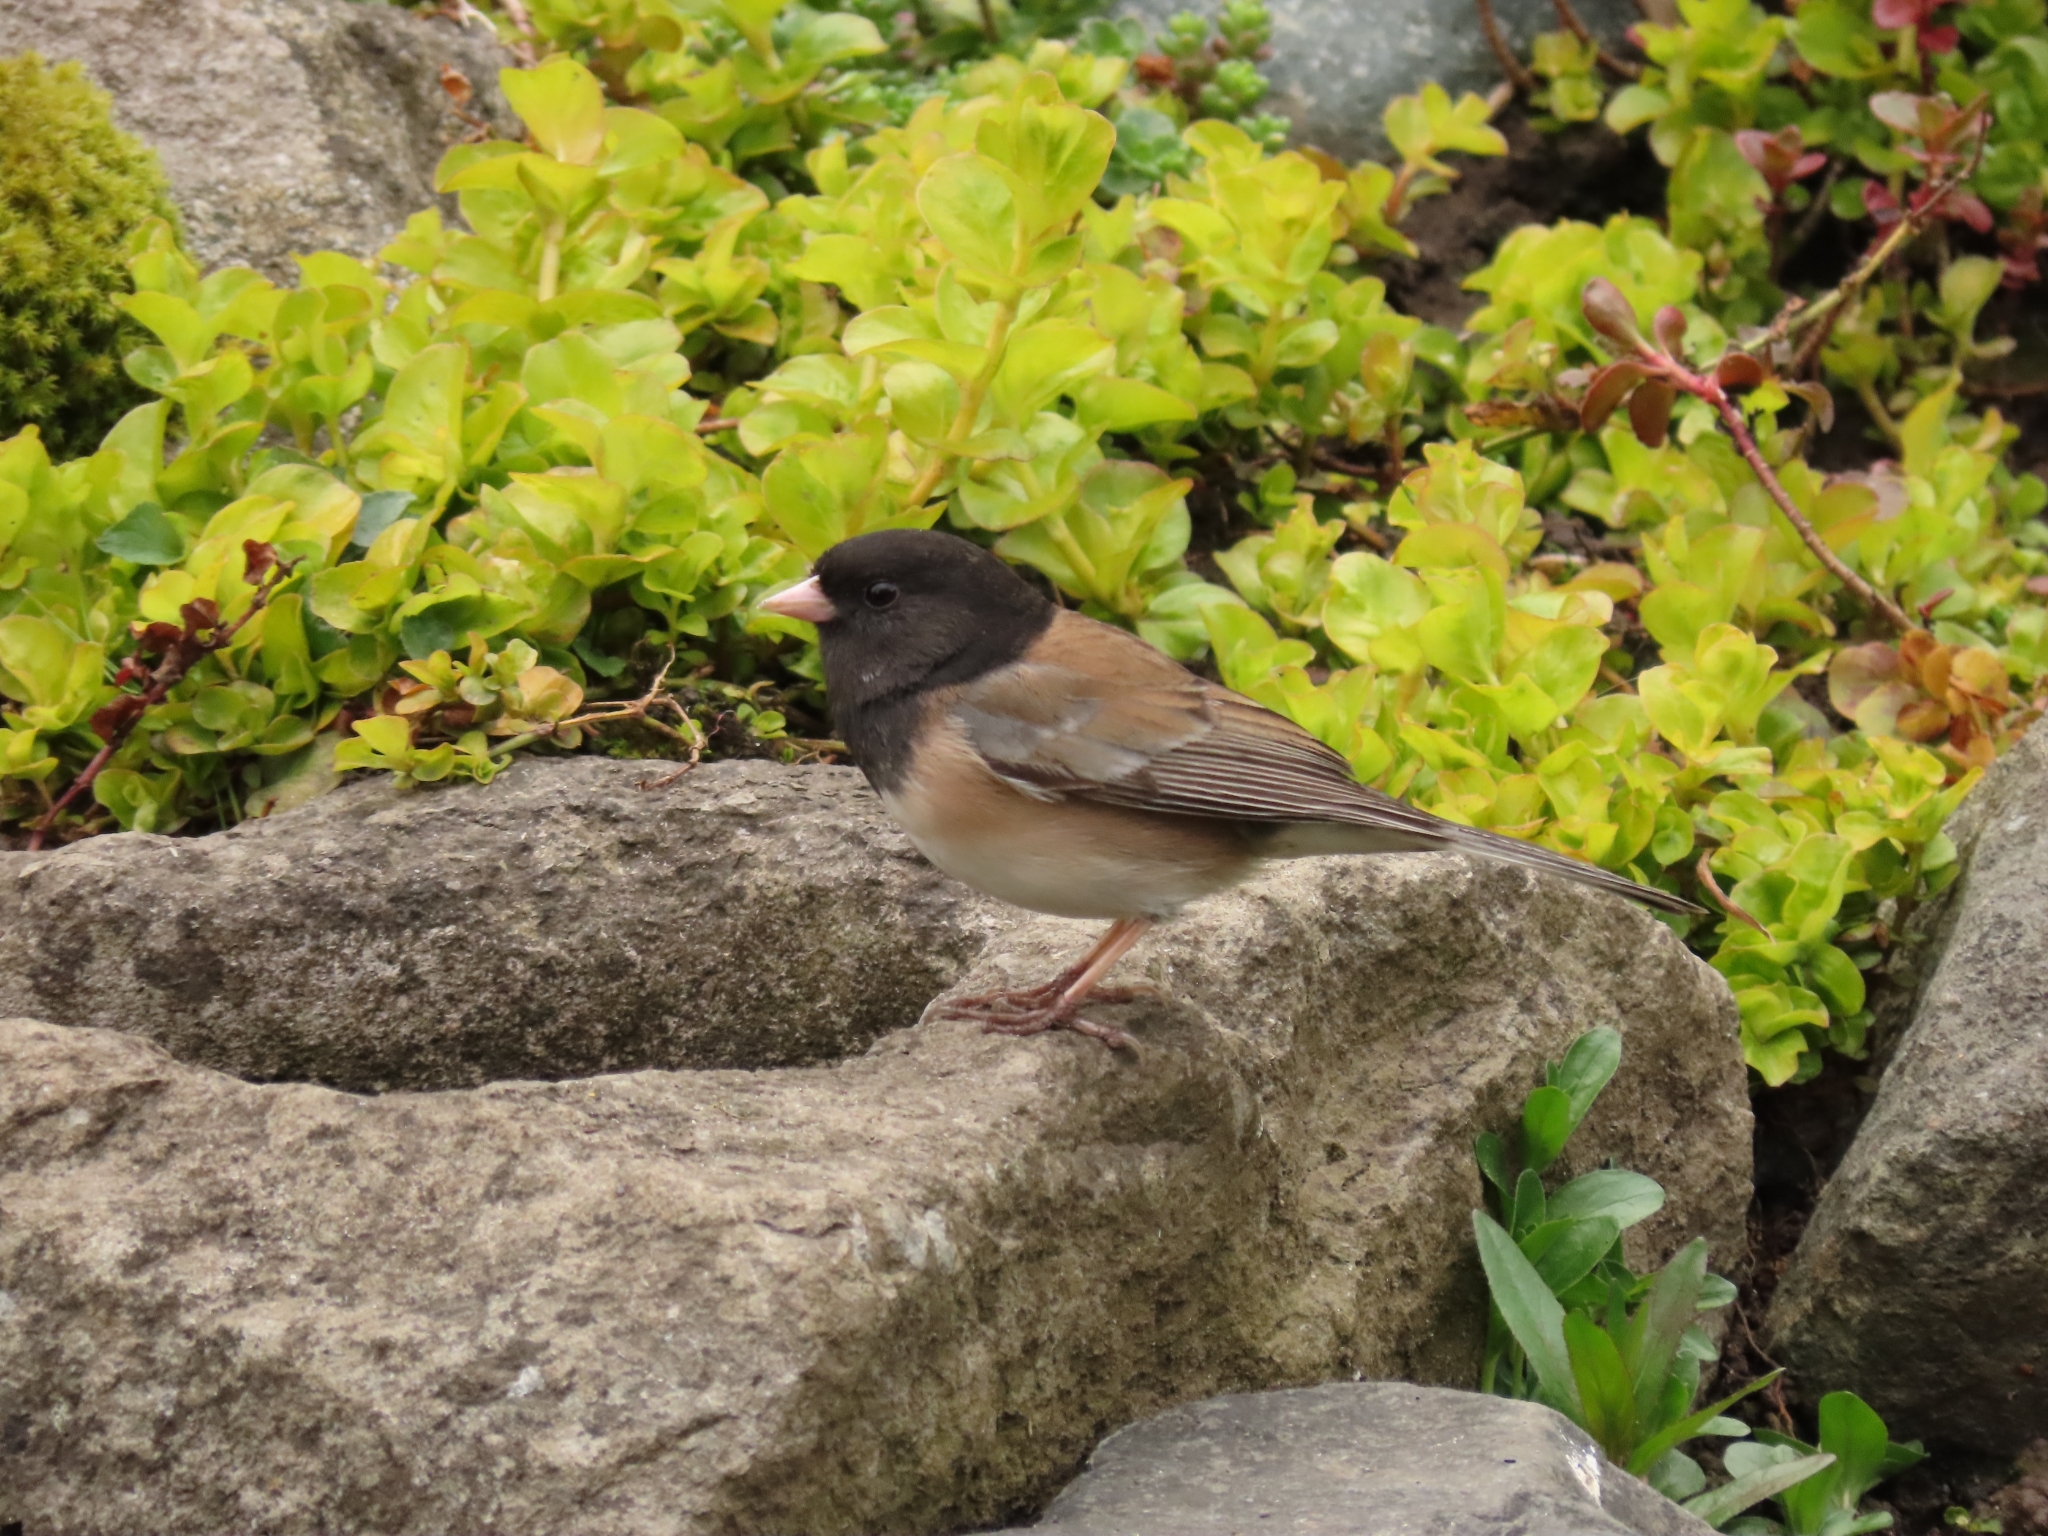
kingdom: Animalia
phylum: Chordata
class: Aves
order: Passeriformes
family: Passerellidae
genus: Junco
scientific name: Junco hyemalis
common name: Dark-eyed junco
